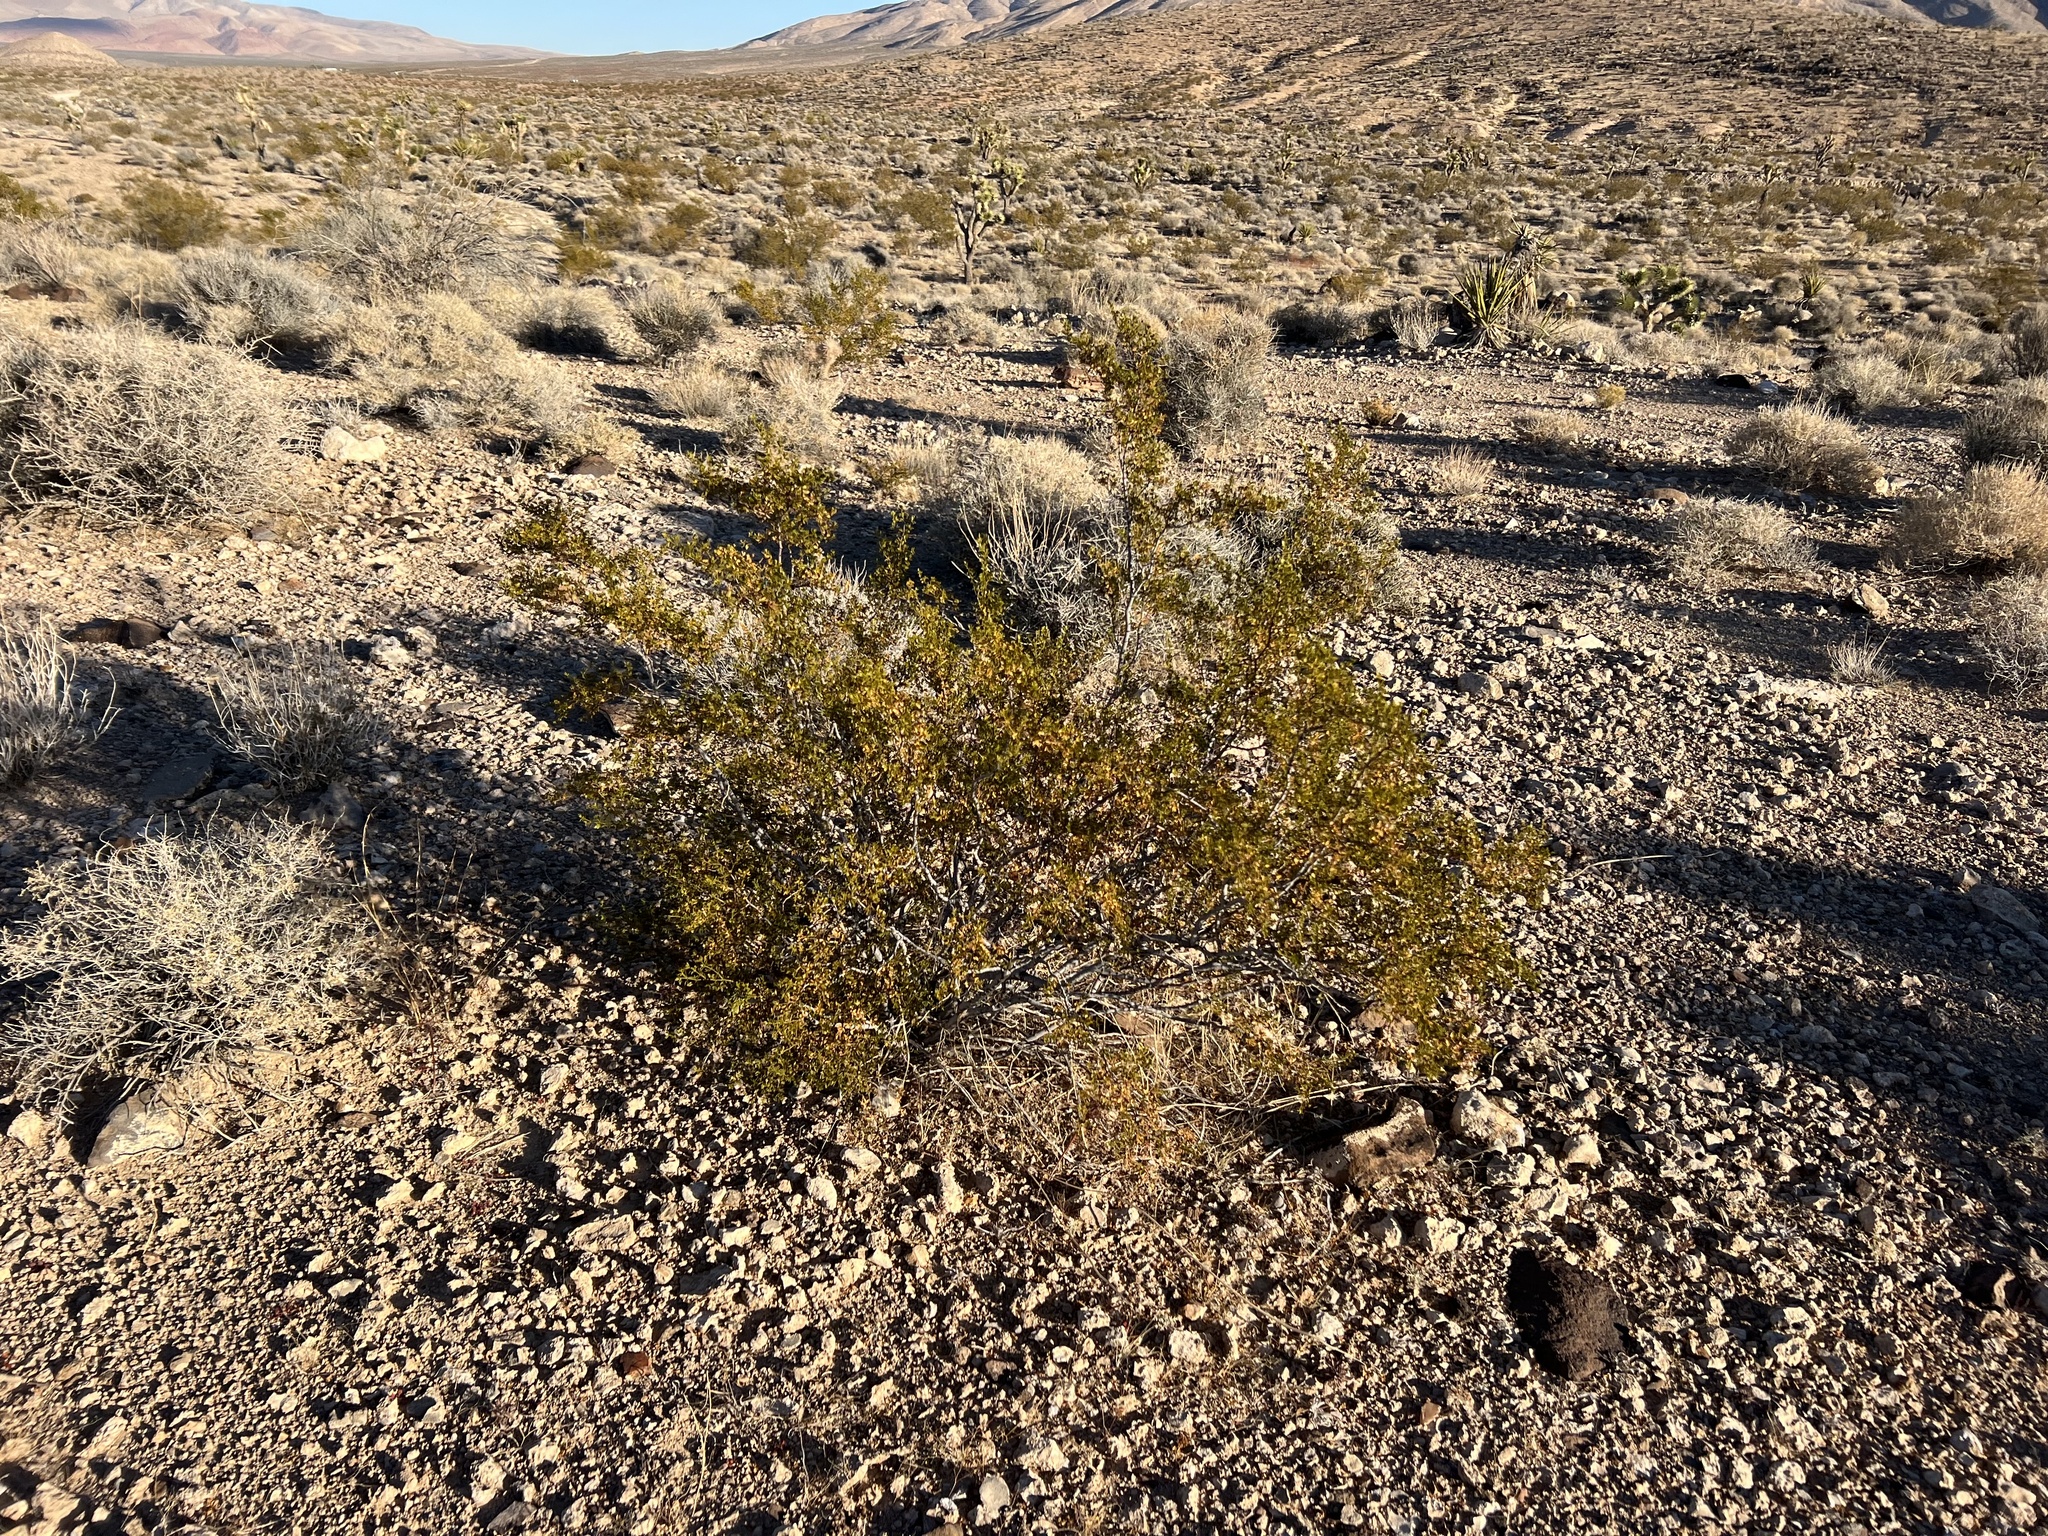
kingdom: Plantae
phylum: Tracheophyta
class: Magnoliopsida
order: Zygophyllales
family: Zygophyllaceae
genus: Larrea
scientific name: Larrea tridentata
